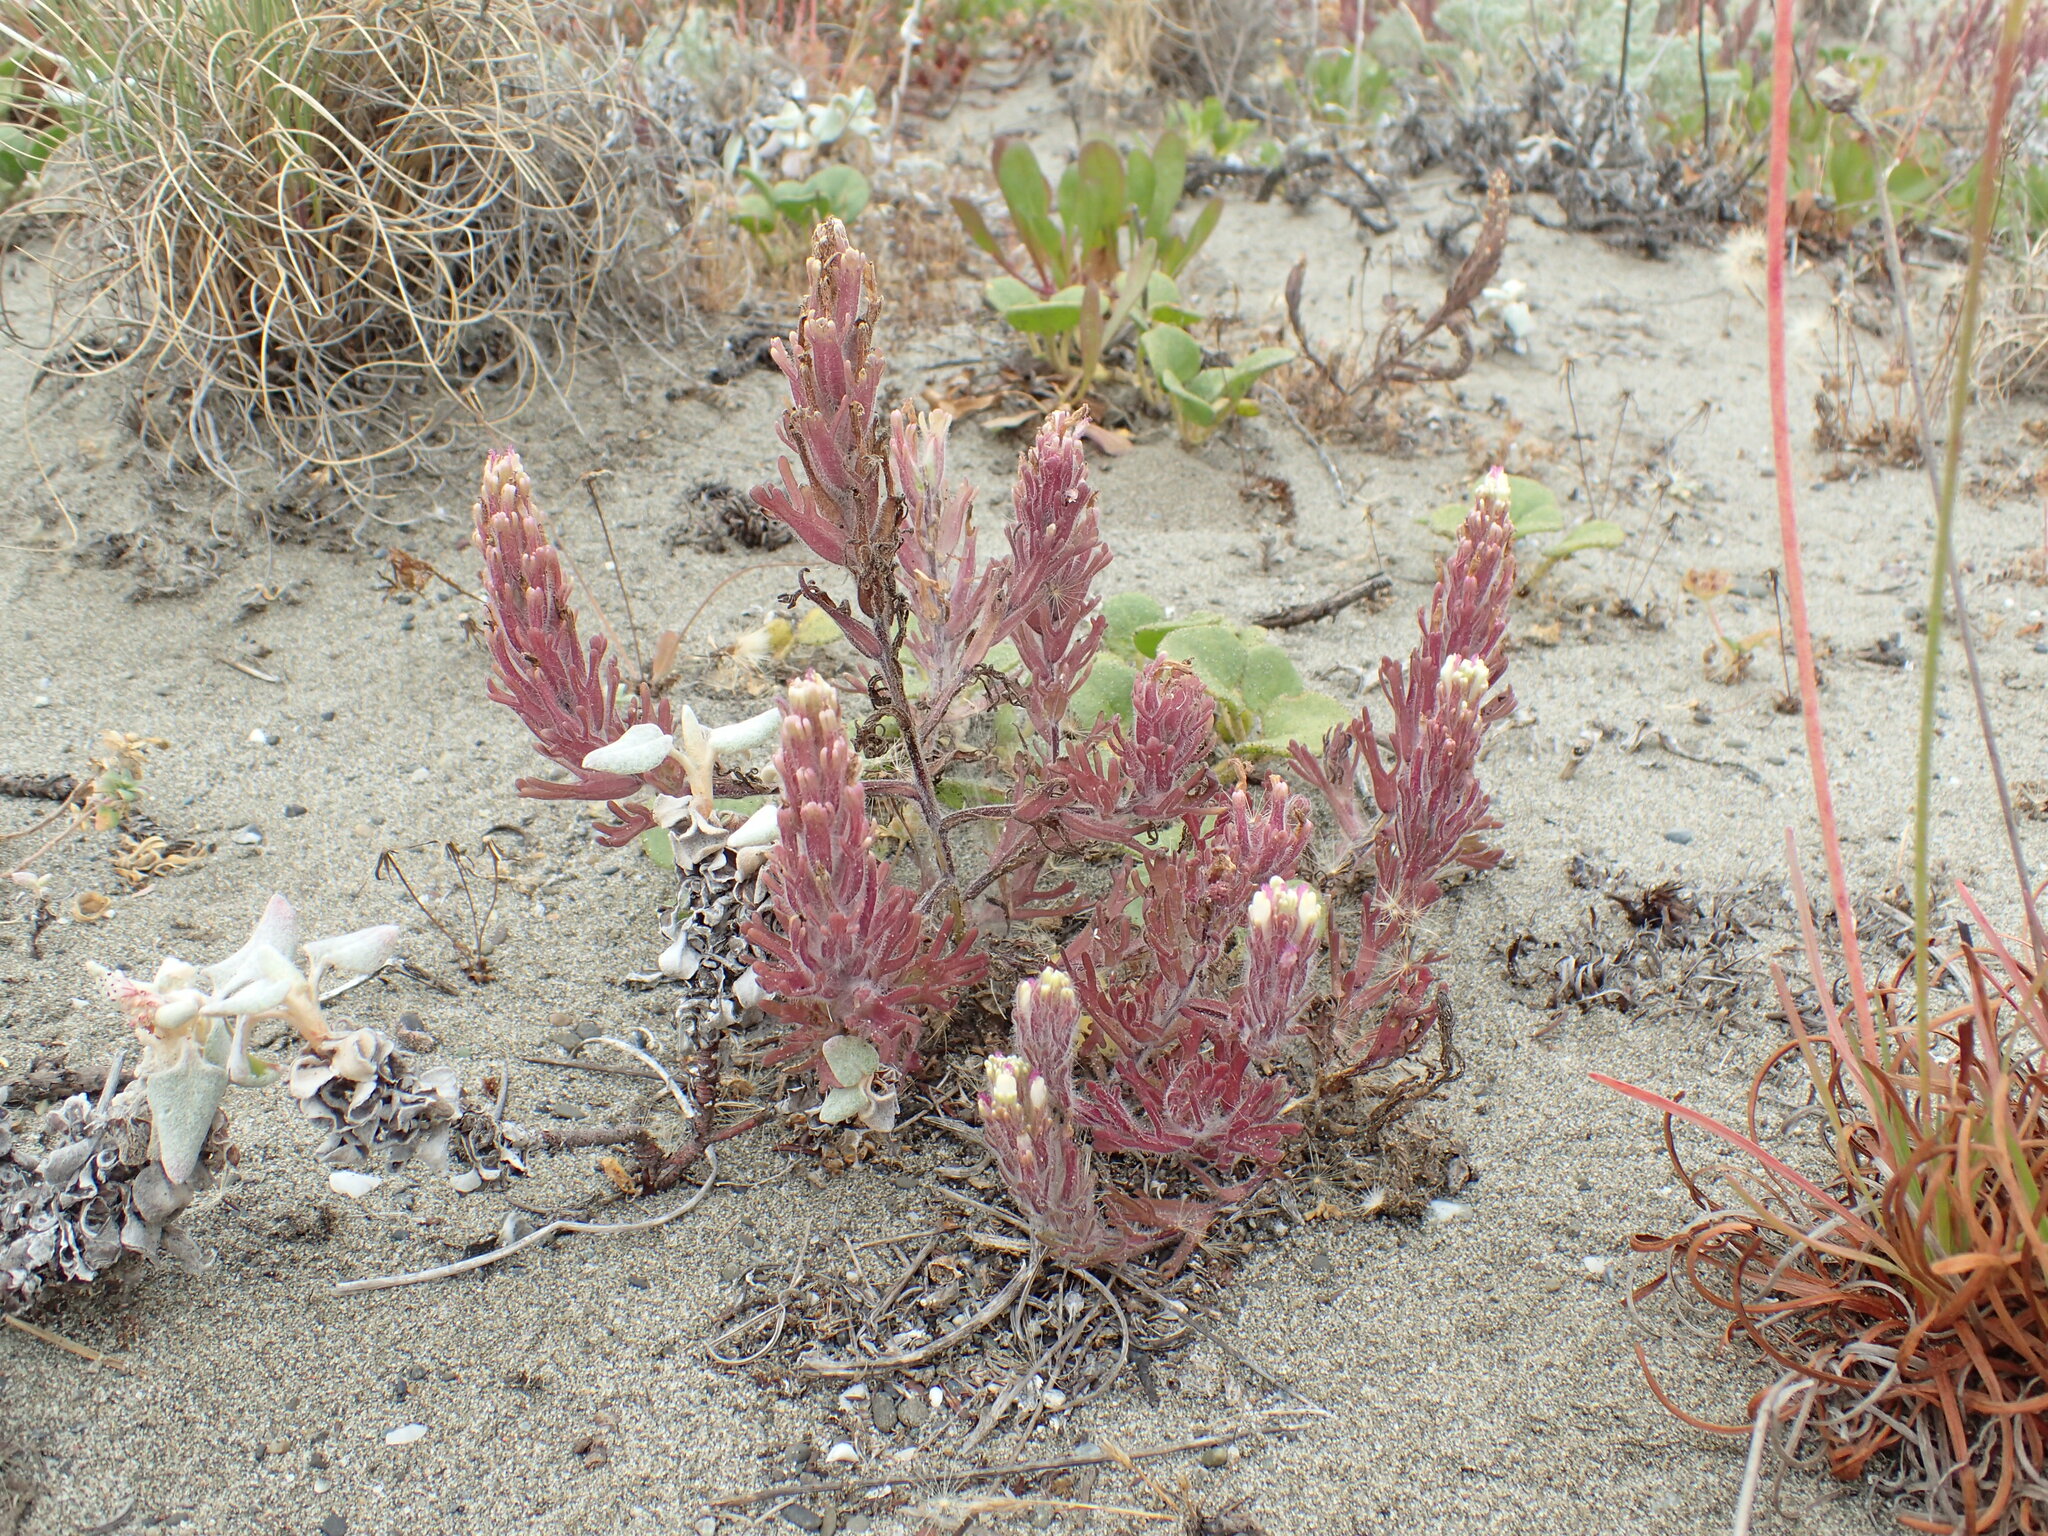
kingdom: Plantae
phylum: Tracheophyta
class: Magnoliopsida
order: Lamiales
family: Orobanchaceae
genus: Castilleja
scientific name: Castilleja exserta
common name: Purple owl-clover
